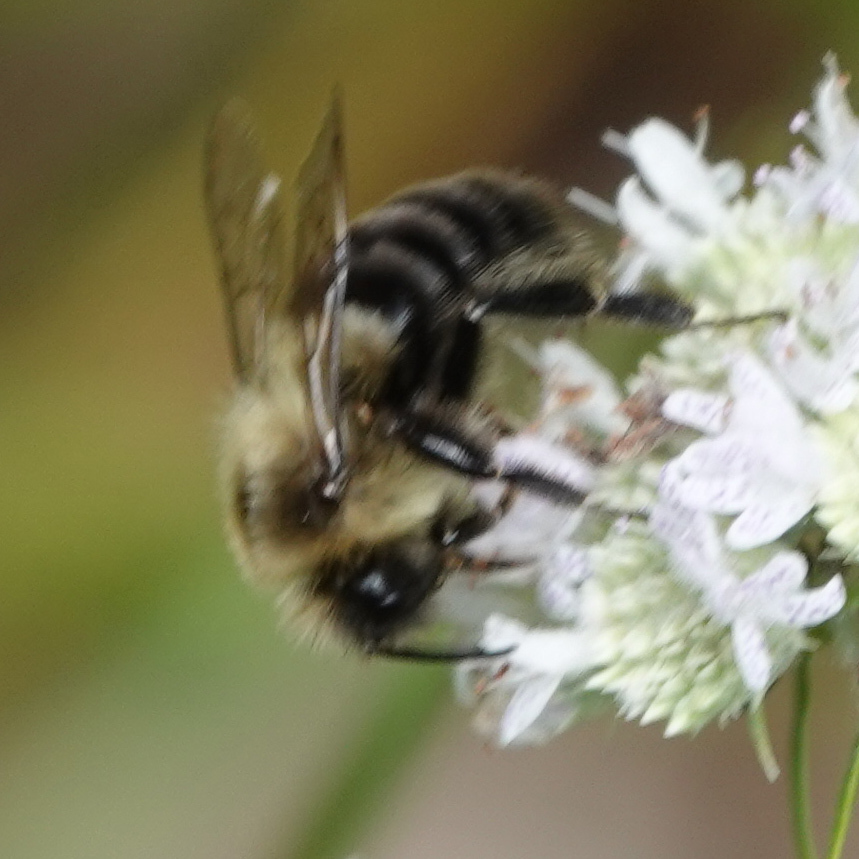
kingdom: Animalia
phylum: Arthropoda
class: Insecta
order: Hymenoptera
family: Apidae
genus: Bombus
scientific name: Bombus impatiens
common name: Common eastern bumble bee
